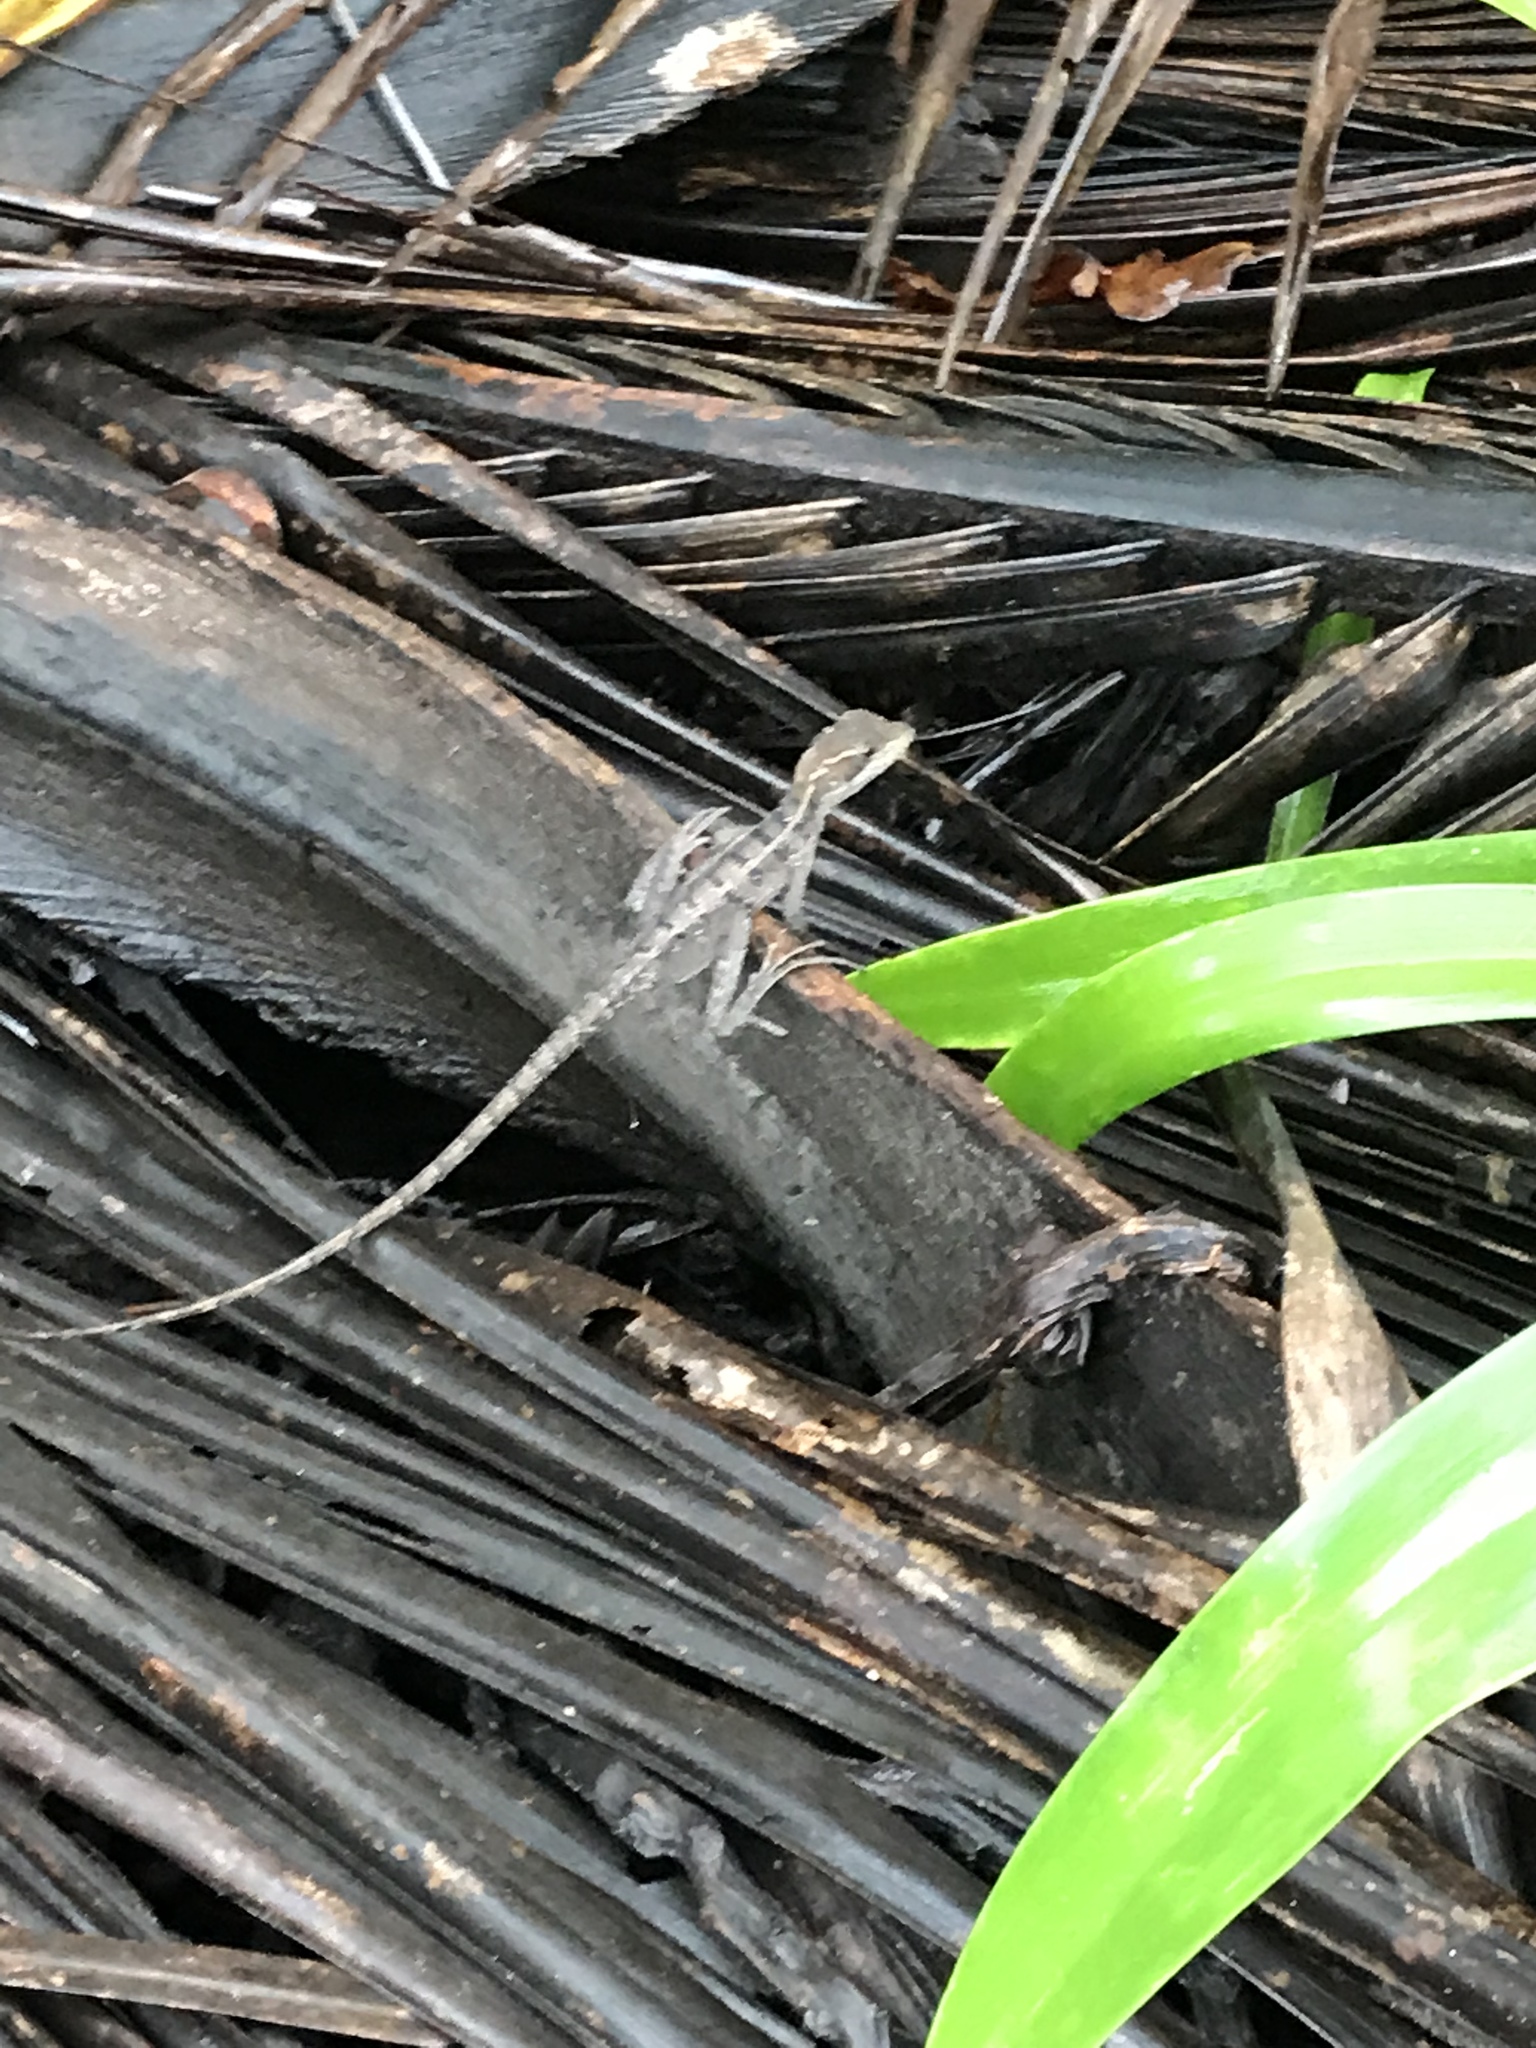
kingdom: Animalia
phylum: Chordata
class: Squamata
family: Corytophanidae
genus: Basiliscus
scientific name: Basiliscus vittatus
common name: Brown basilisk
